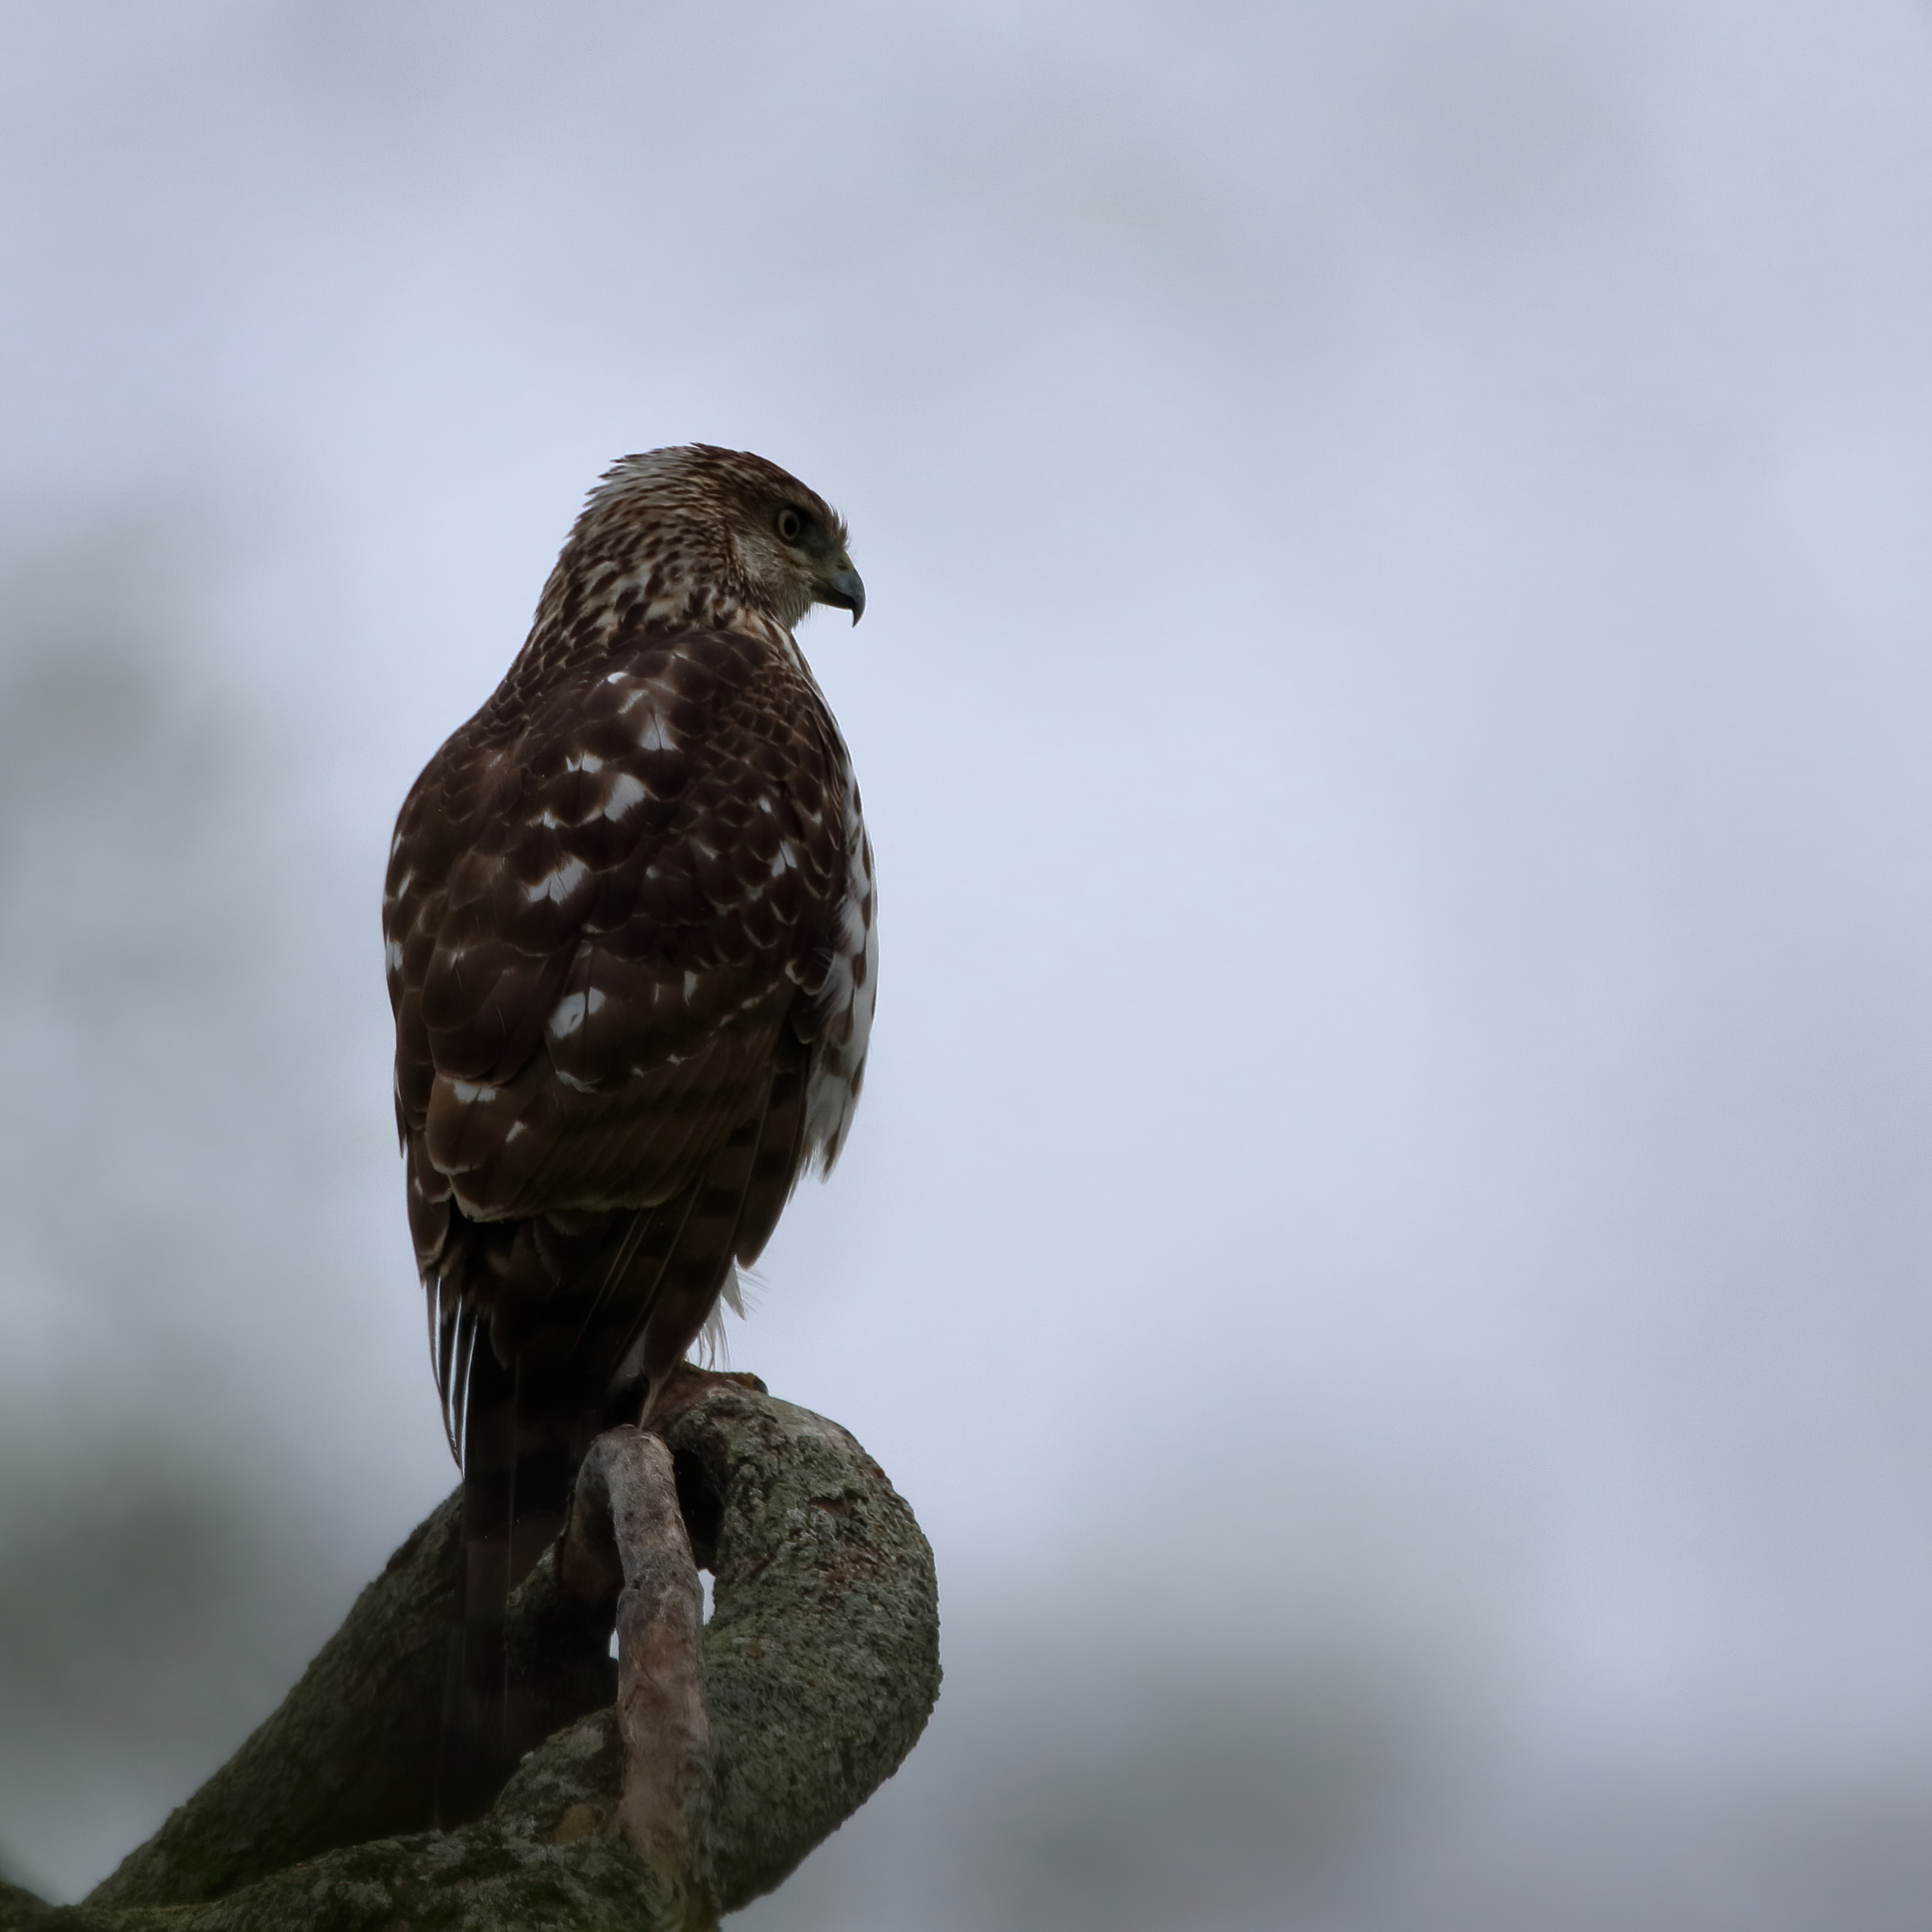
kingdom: Animalia
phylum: Chordata
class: Aves
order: Accipitriformes
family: Accipitridae
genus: Accipiter
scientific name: Accipiter cooperii
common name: Cooper's hawk
